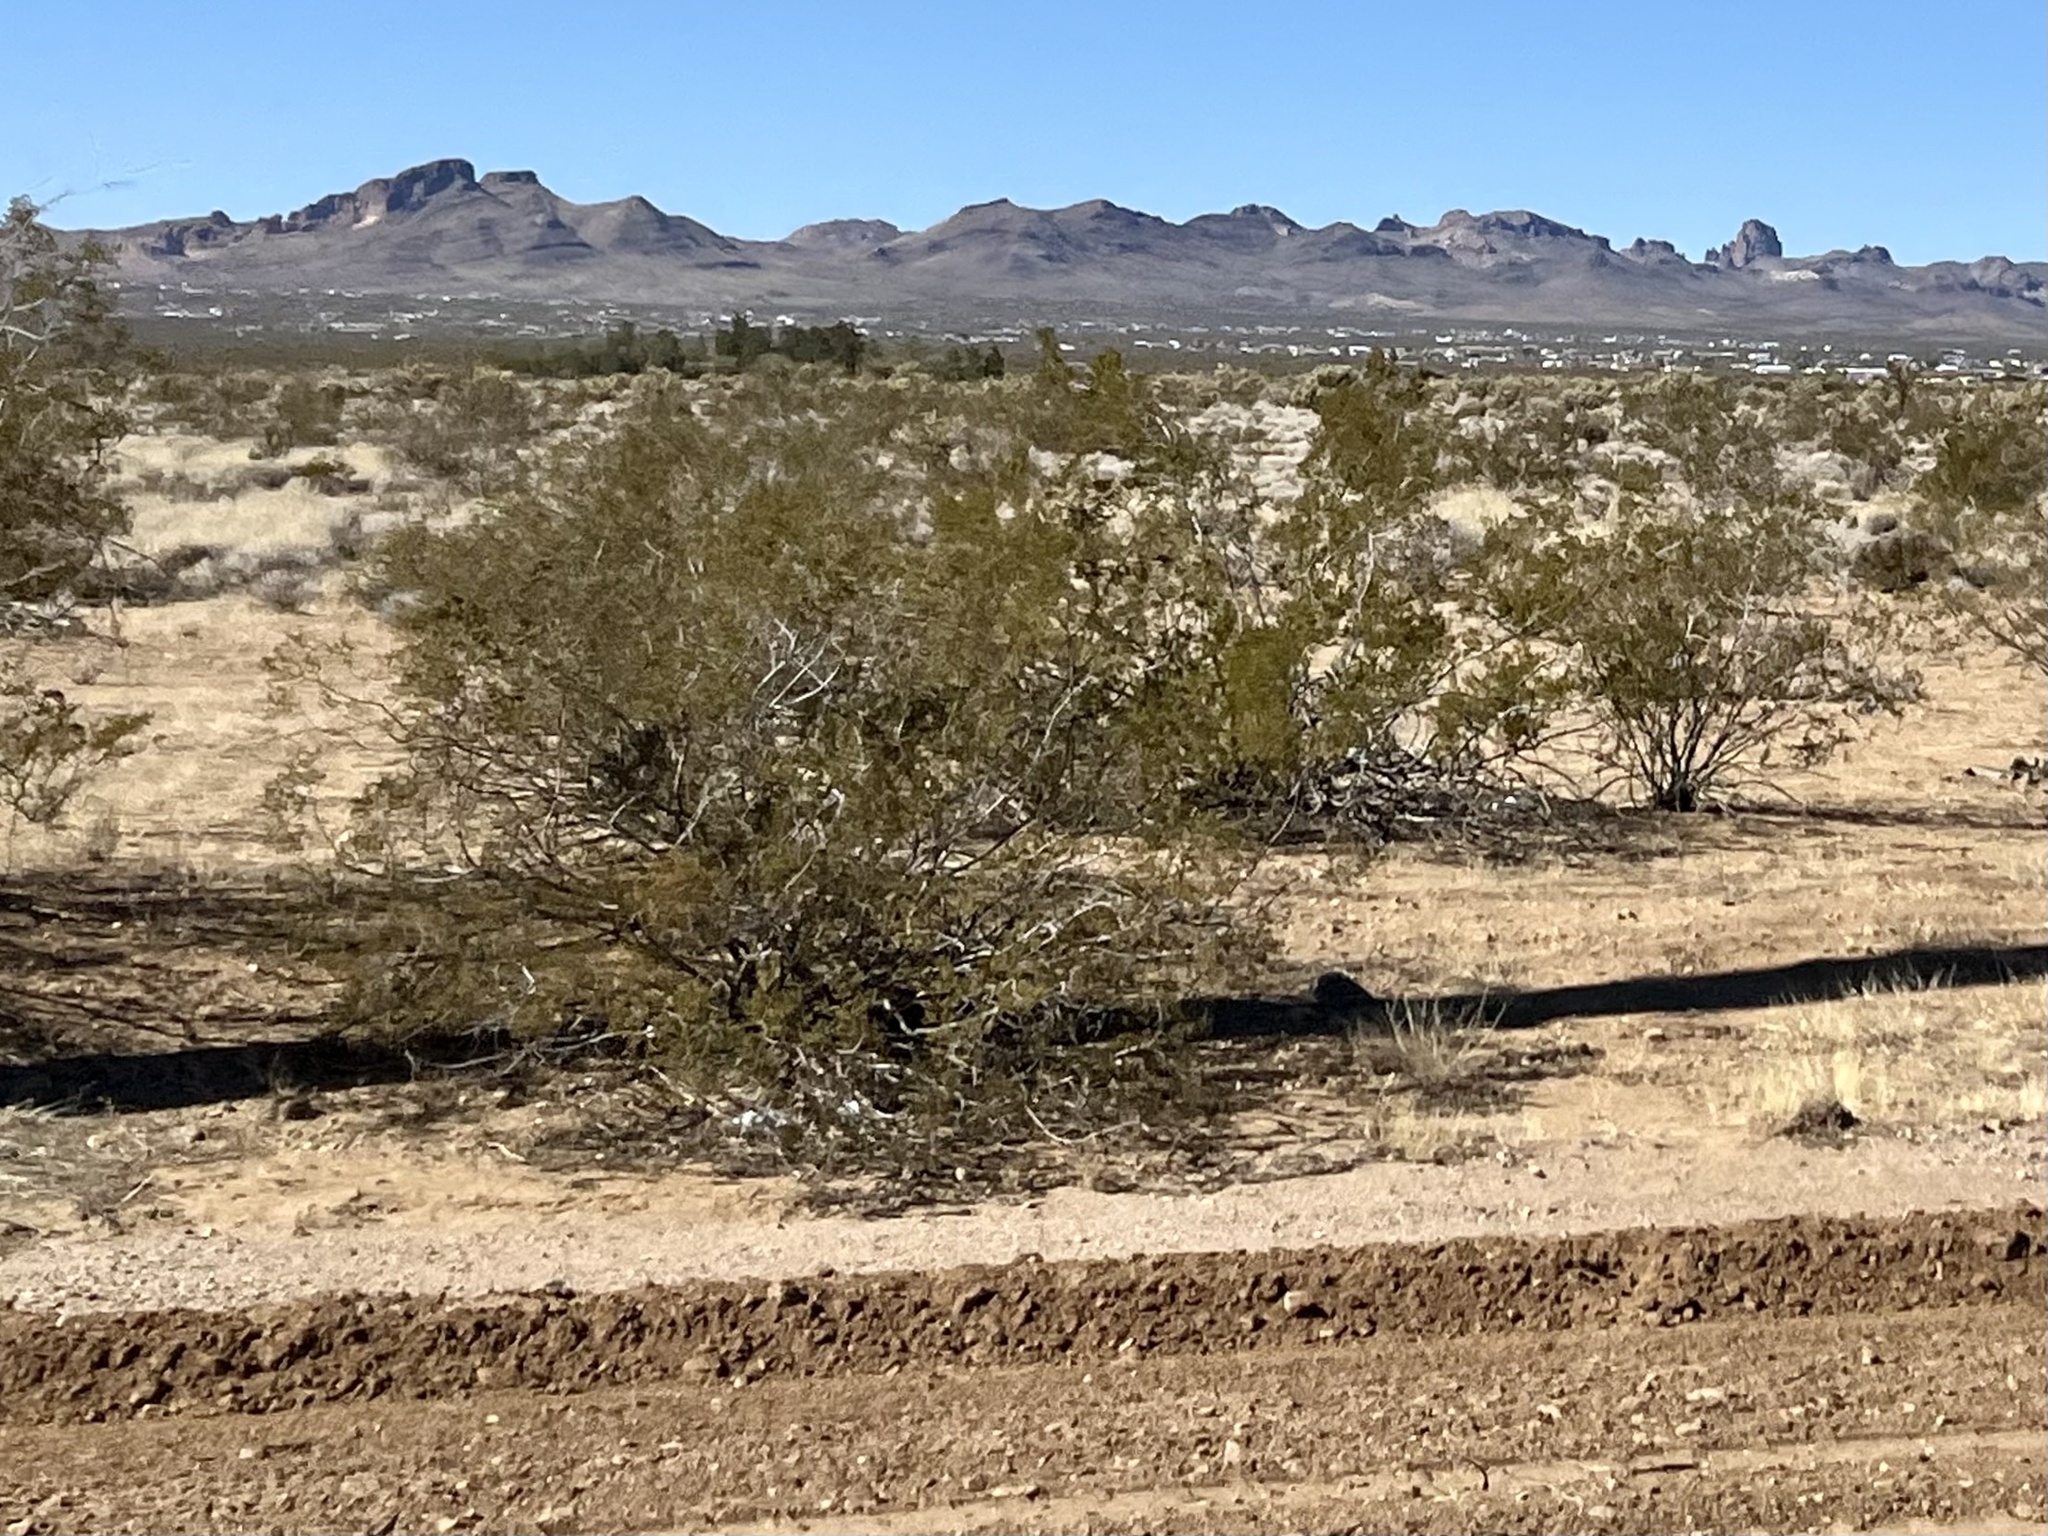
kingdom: Plantae
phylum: Tracheophyta
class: Magnoliopsida
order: Zygophyllales
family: Zygophyllaceae
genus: Larrea
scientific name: Larrea tridentata
